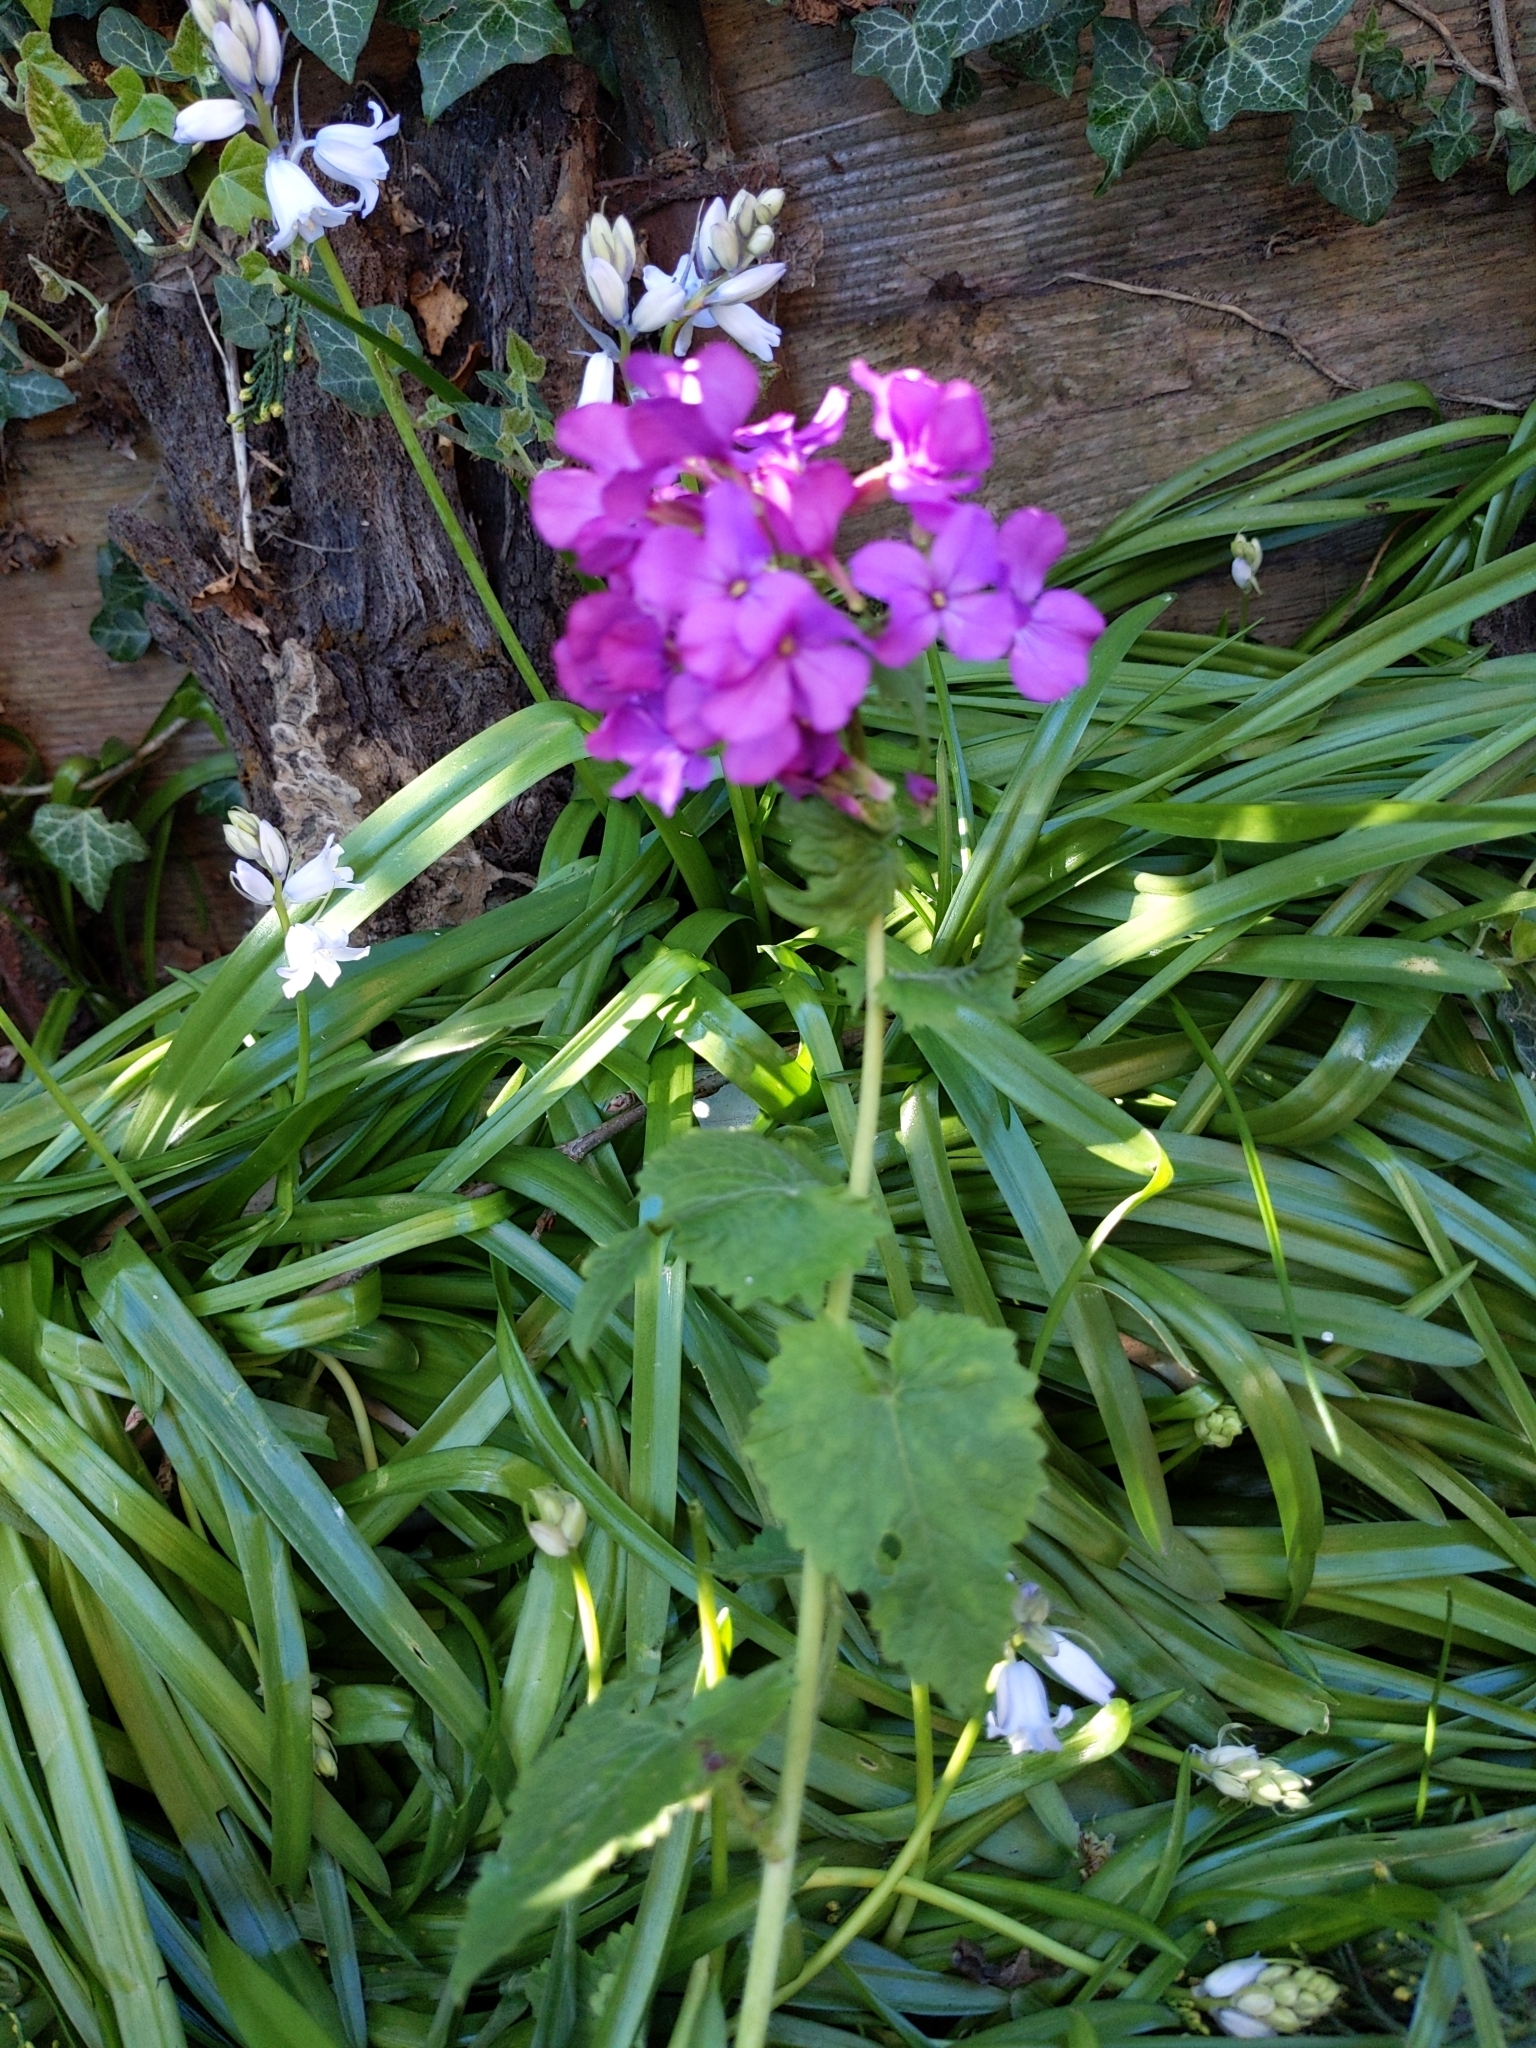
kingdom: Plantae
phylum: Tracheophyta
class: Magnoliopsida
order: Brassicales
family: Brassicaceae
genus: Lunaria
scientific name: Lunaria annua
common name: Honesty
